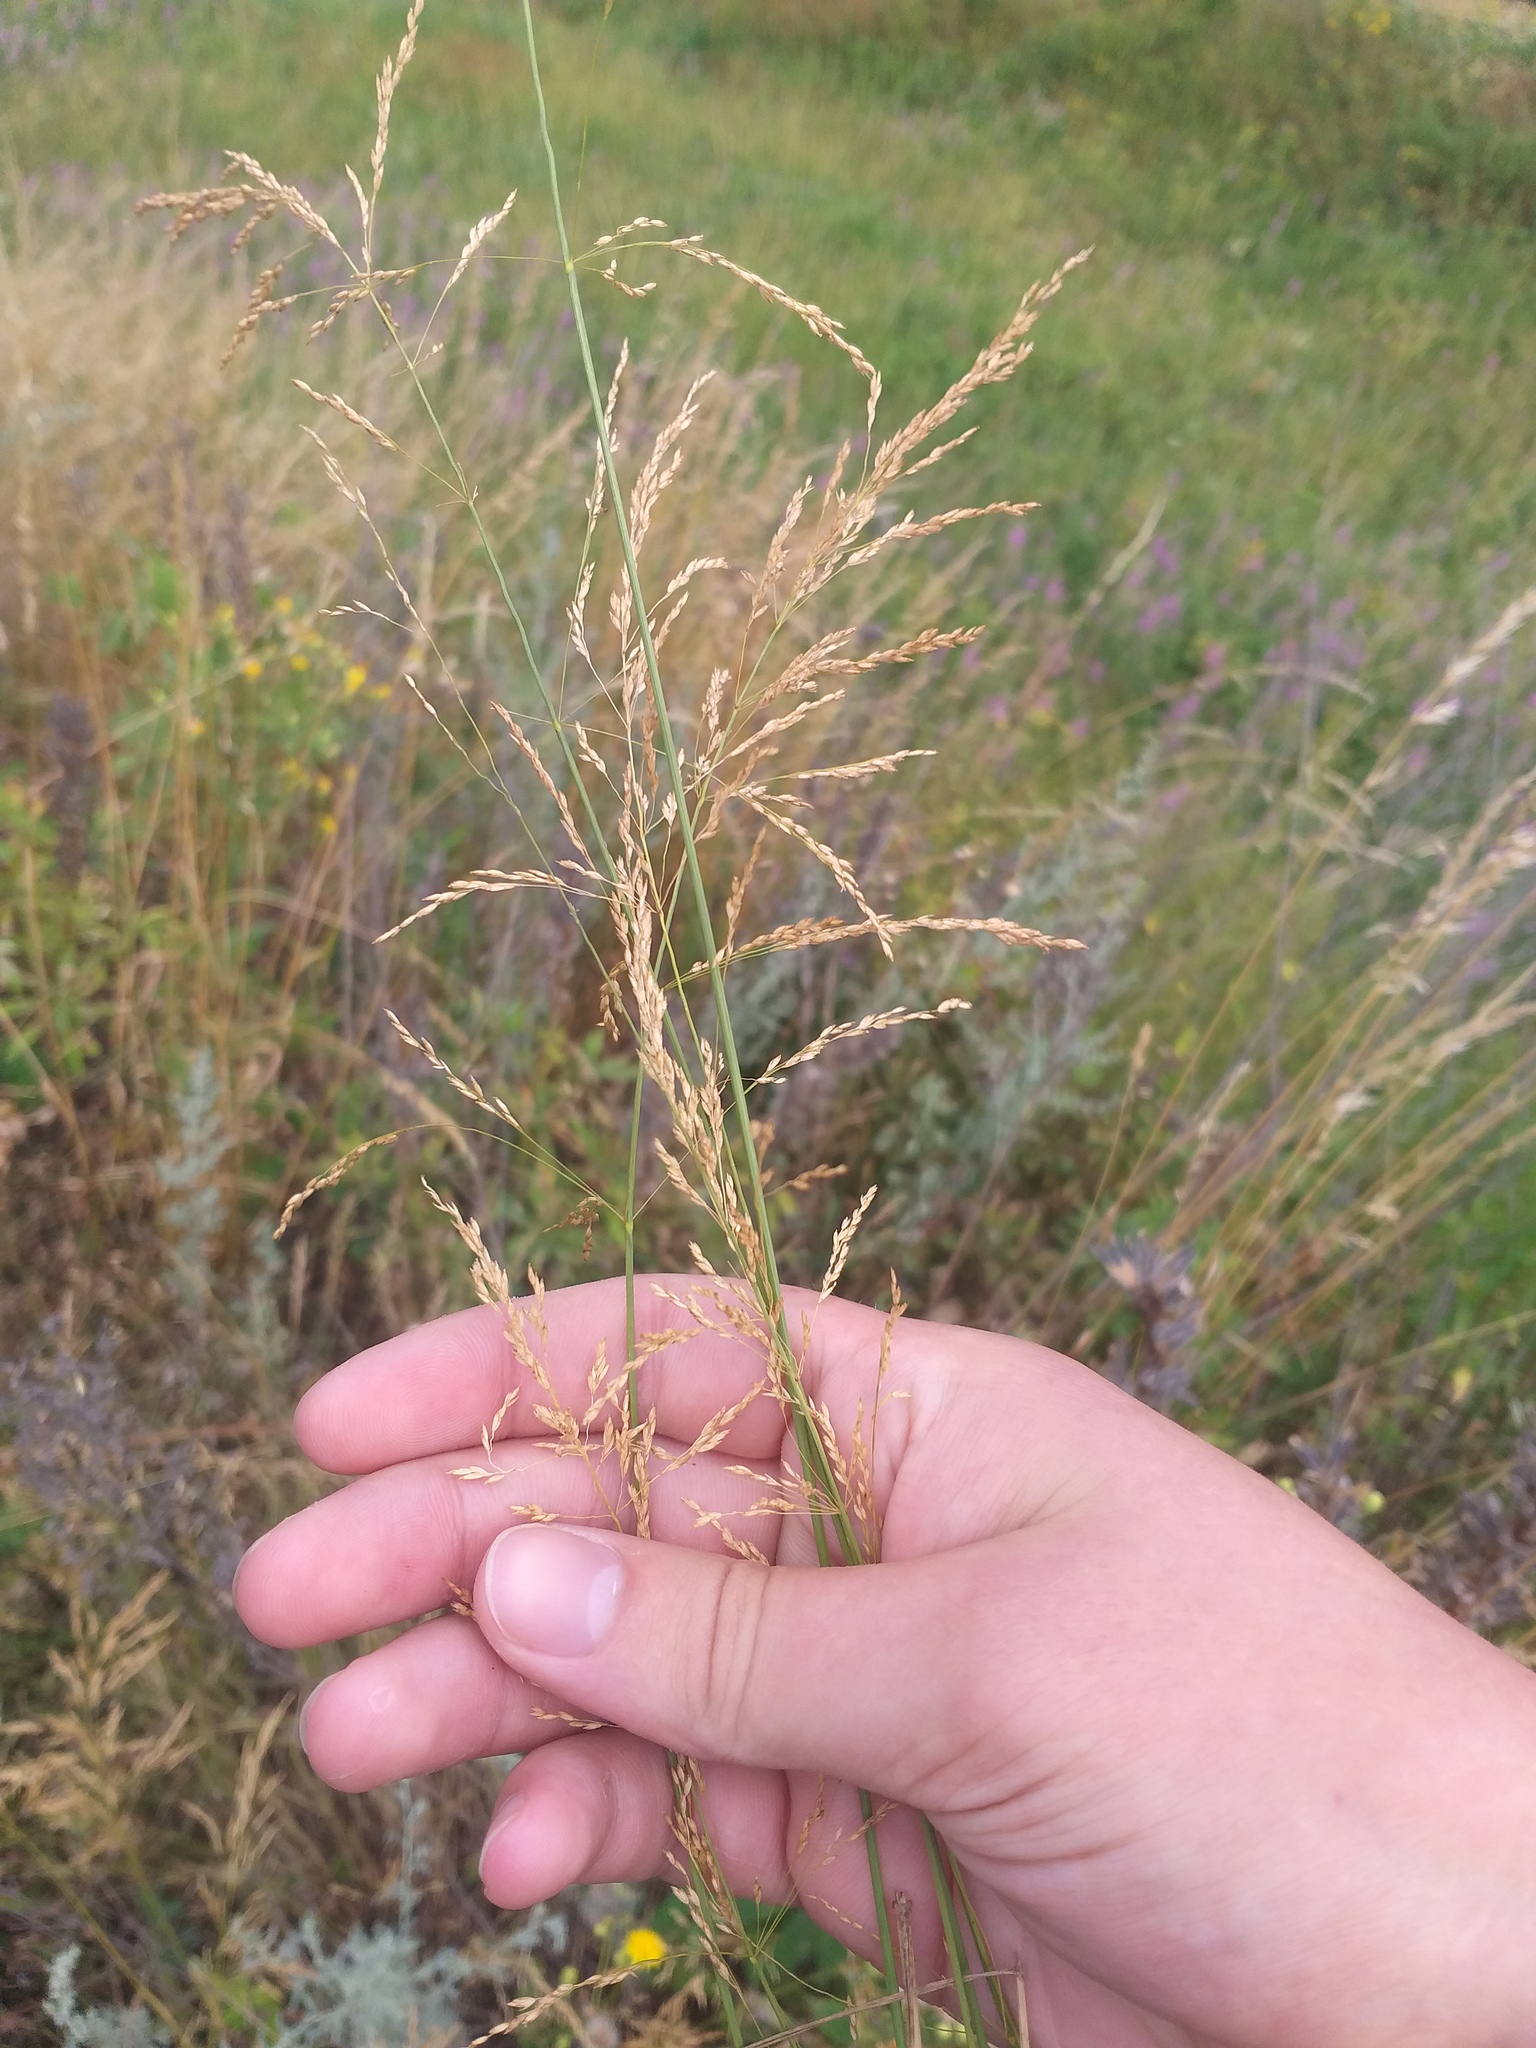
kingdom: Plantae
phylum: Tracheophyta
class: Liliopsida
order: Poales
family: Poaceae
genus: Poa
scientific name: Poa palustris
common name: Swamp meadow-grass
